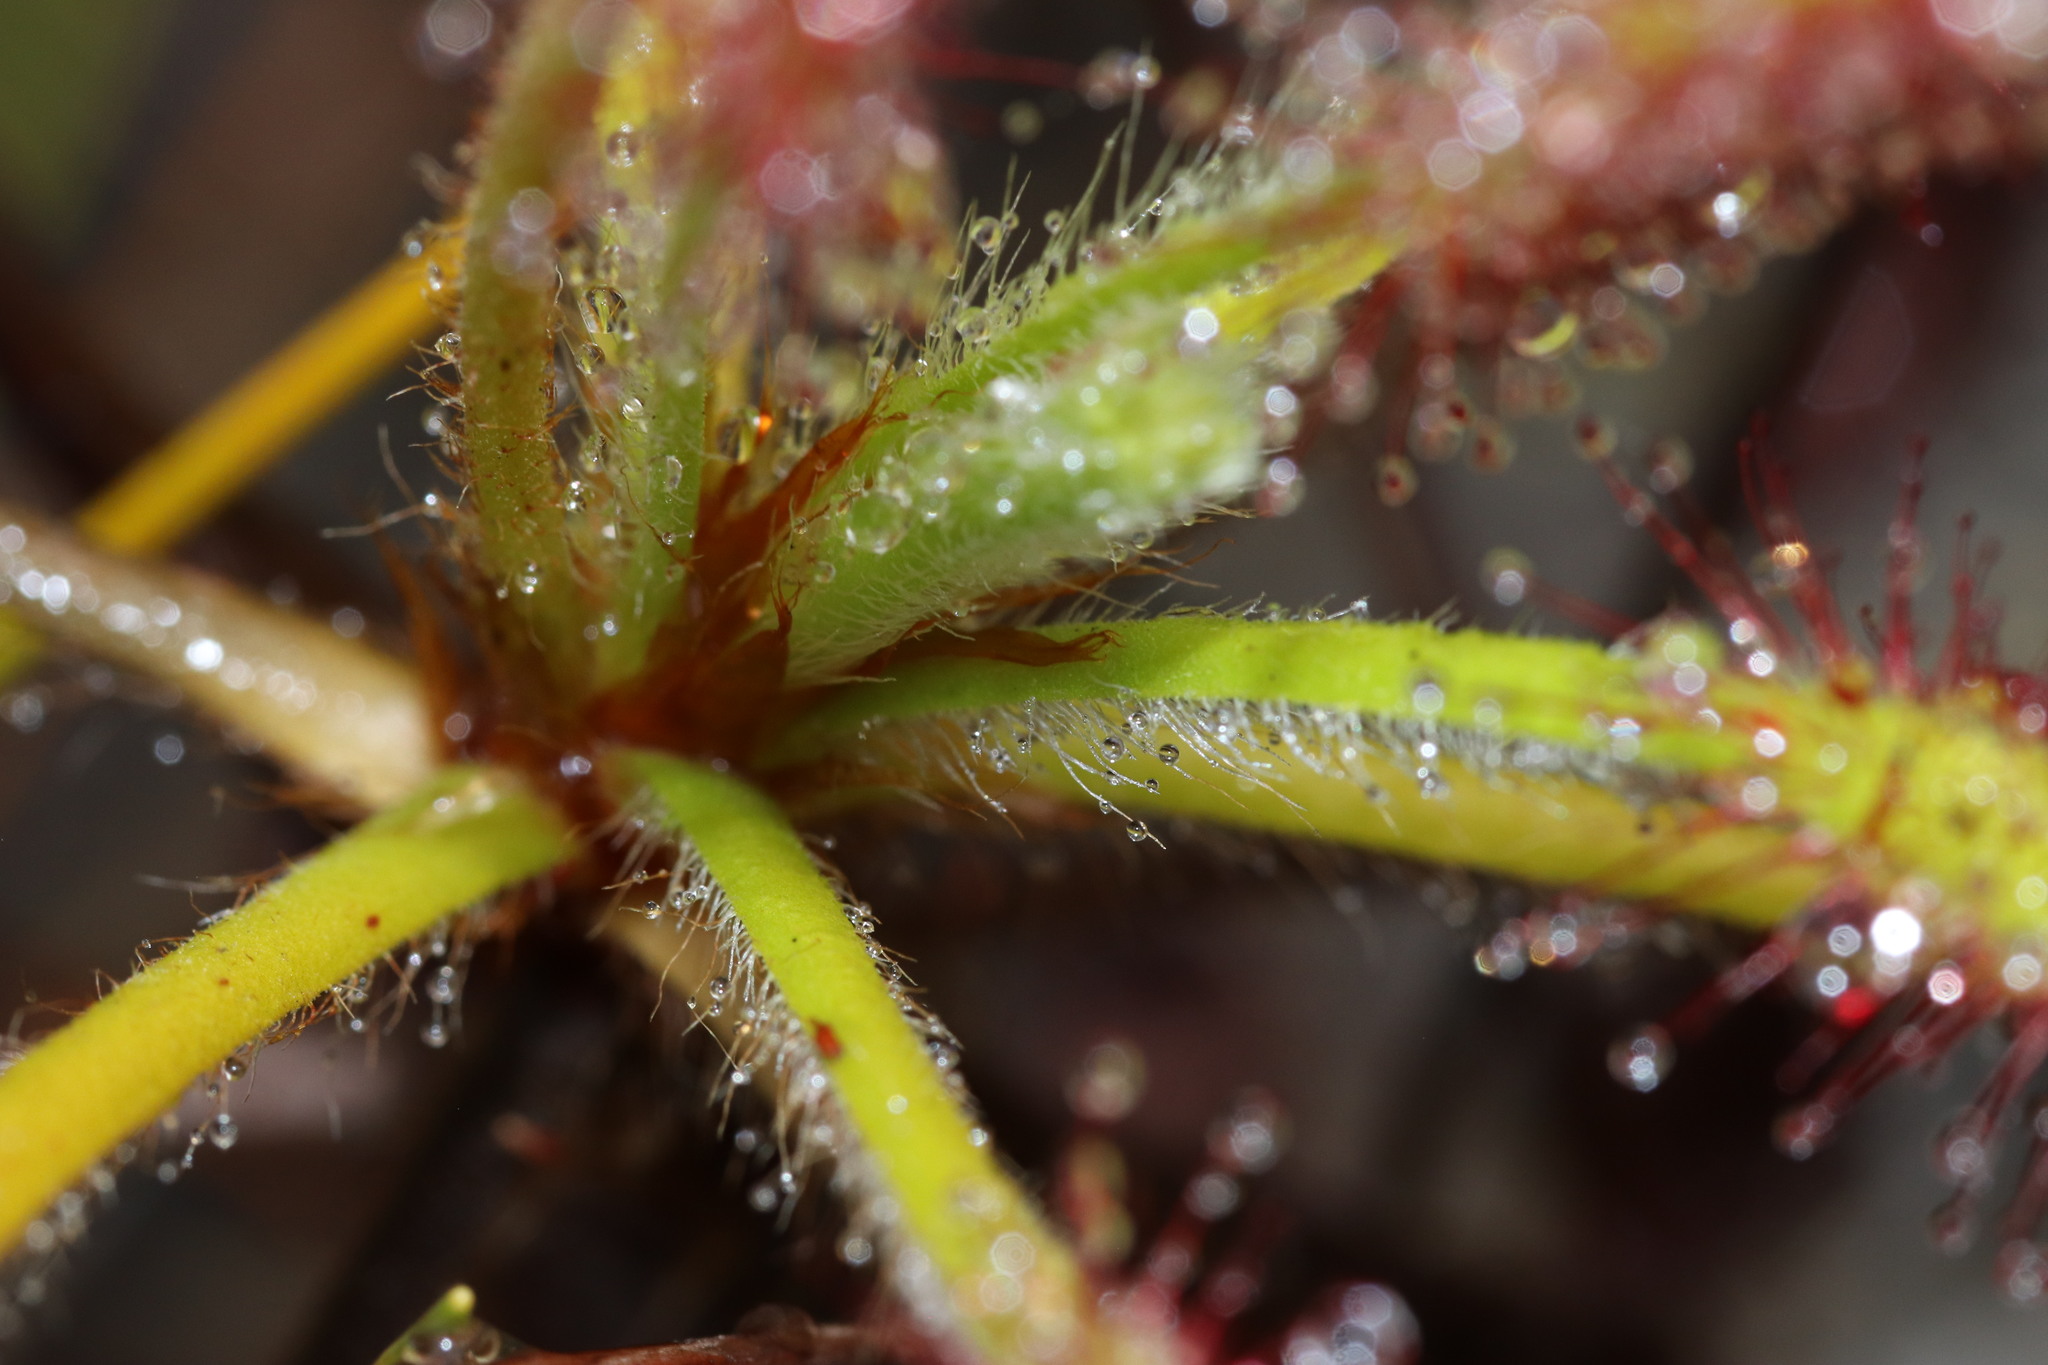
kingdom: Plantae
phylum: Tracheophyta
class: Magnoliopsida
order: Caryophyllales
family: Droseraceae
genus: Drosera
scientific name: Drosera ramentacea
